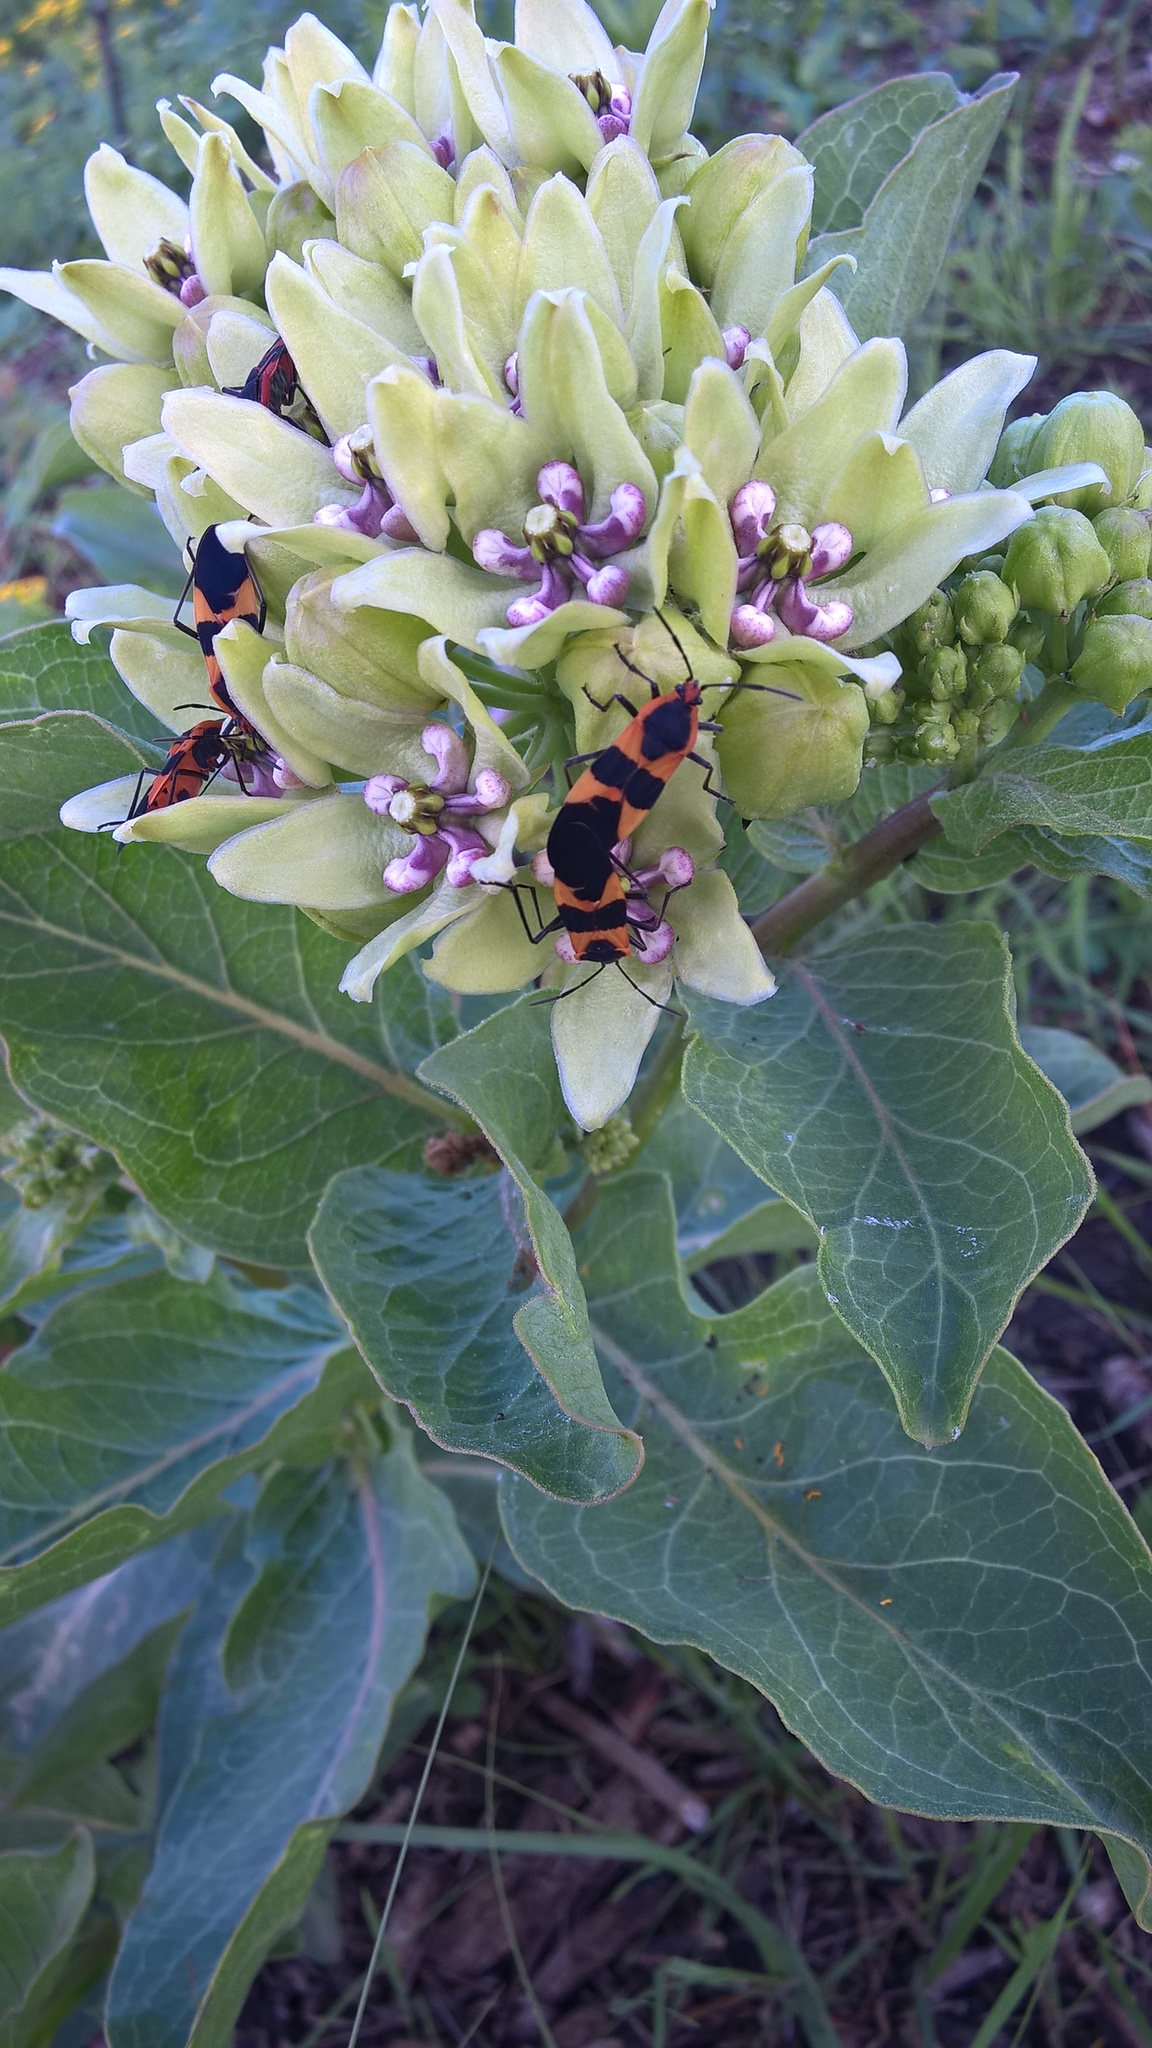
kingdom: Animalia
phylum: Arthropoda
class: Insecta
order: Hemiptera
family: Lygaeidae
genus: Oncopeltus
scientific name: Oncopeltus fasciatus
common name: Large milkweed bug
